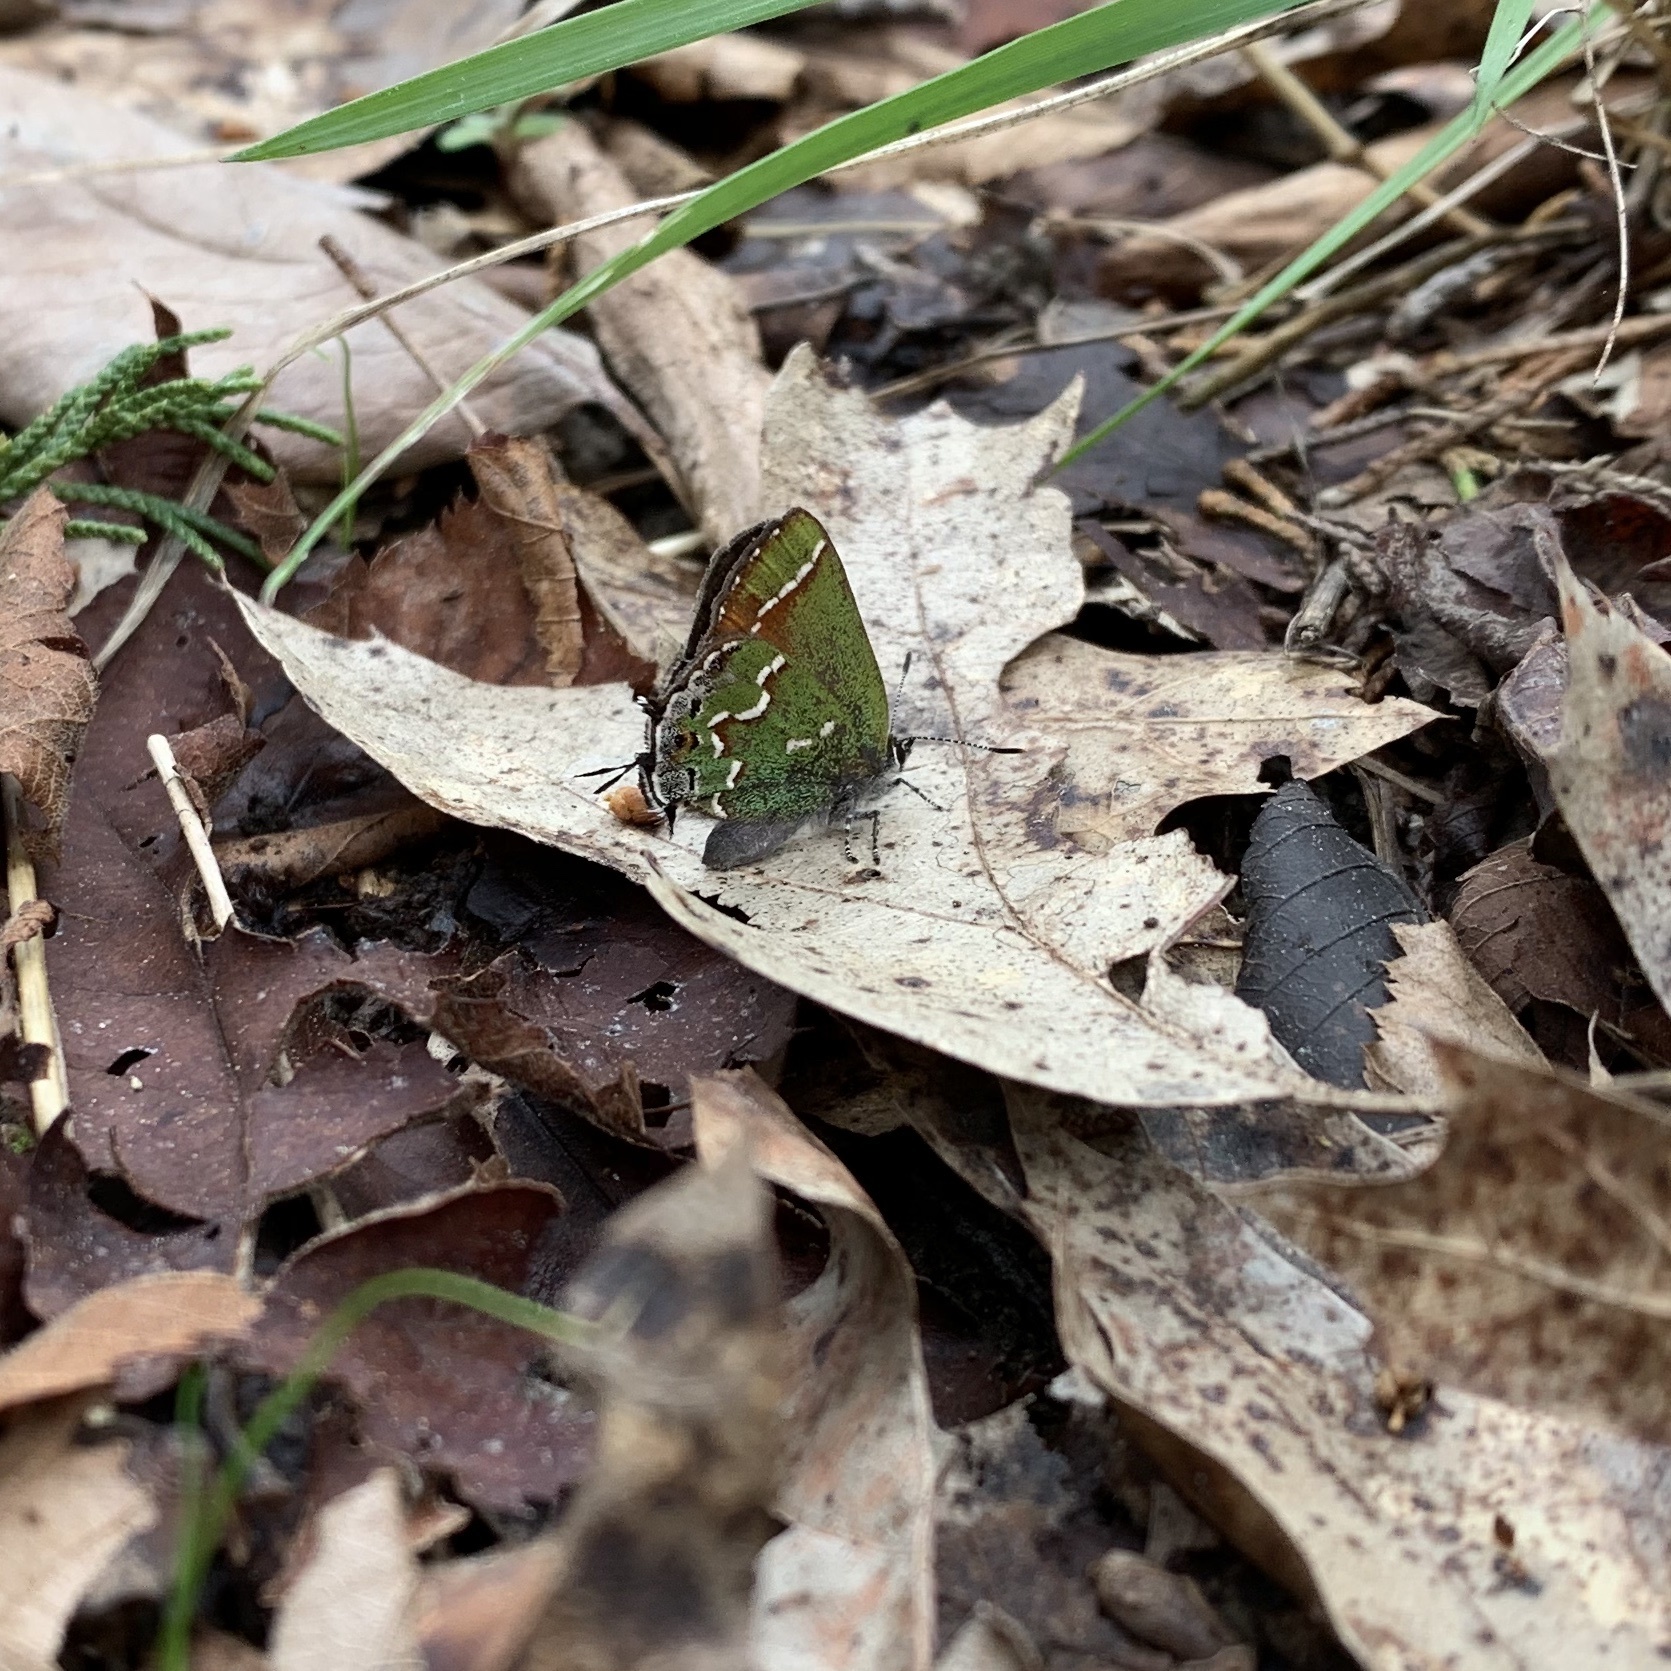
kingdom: Animalia
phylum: Arthropoda
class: Insecta
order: Lepidoptera
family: Lycaenidae
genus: Mitoura
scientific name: Mitoura gryneus
